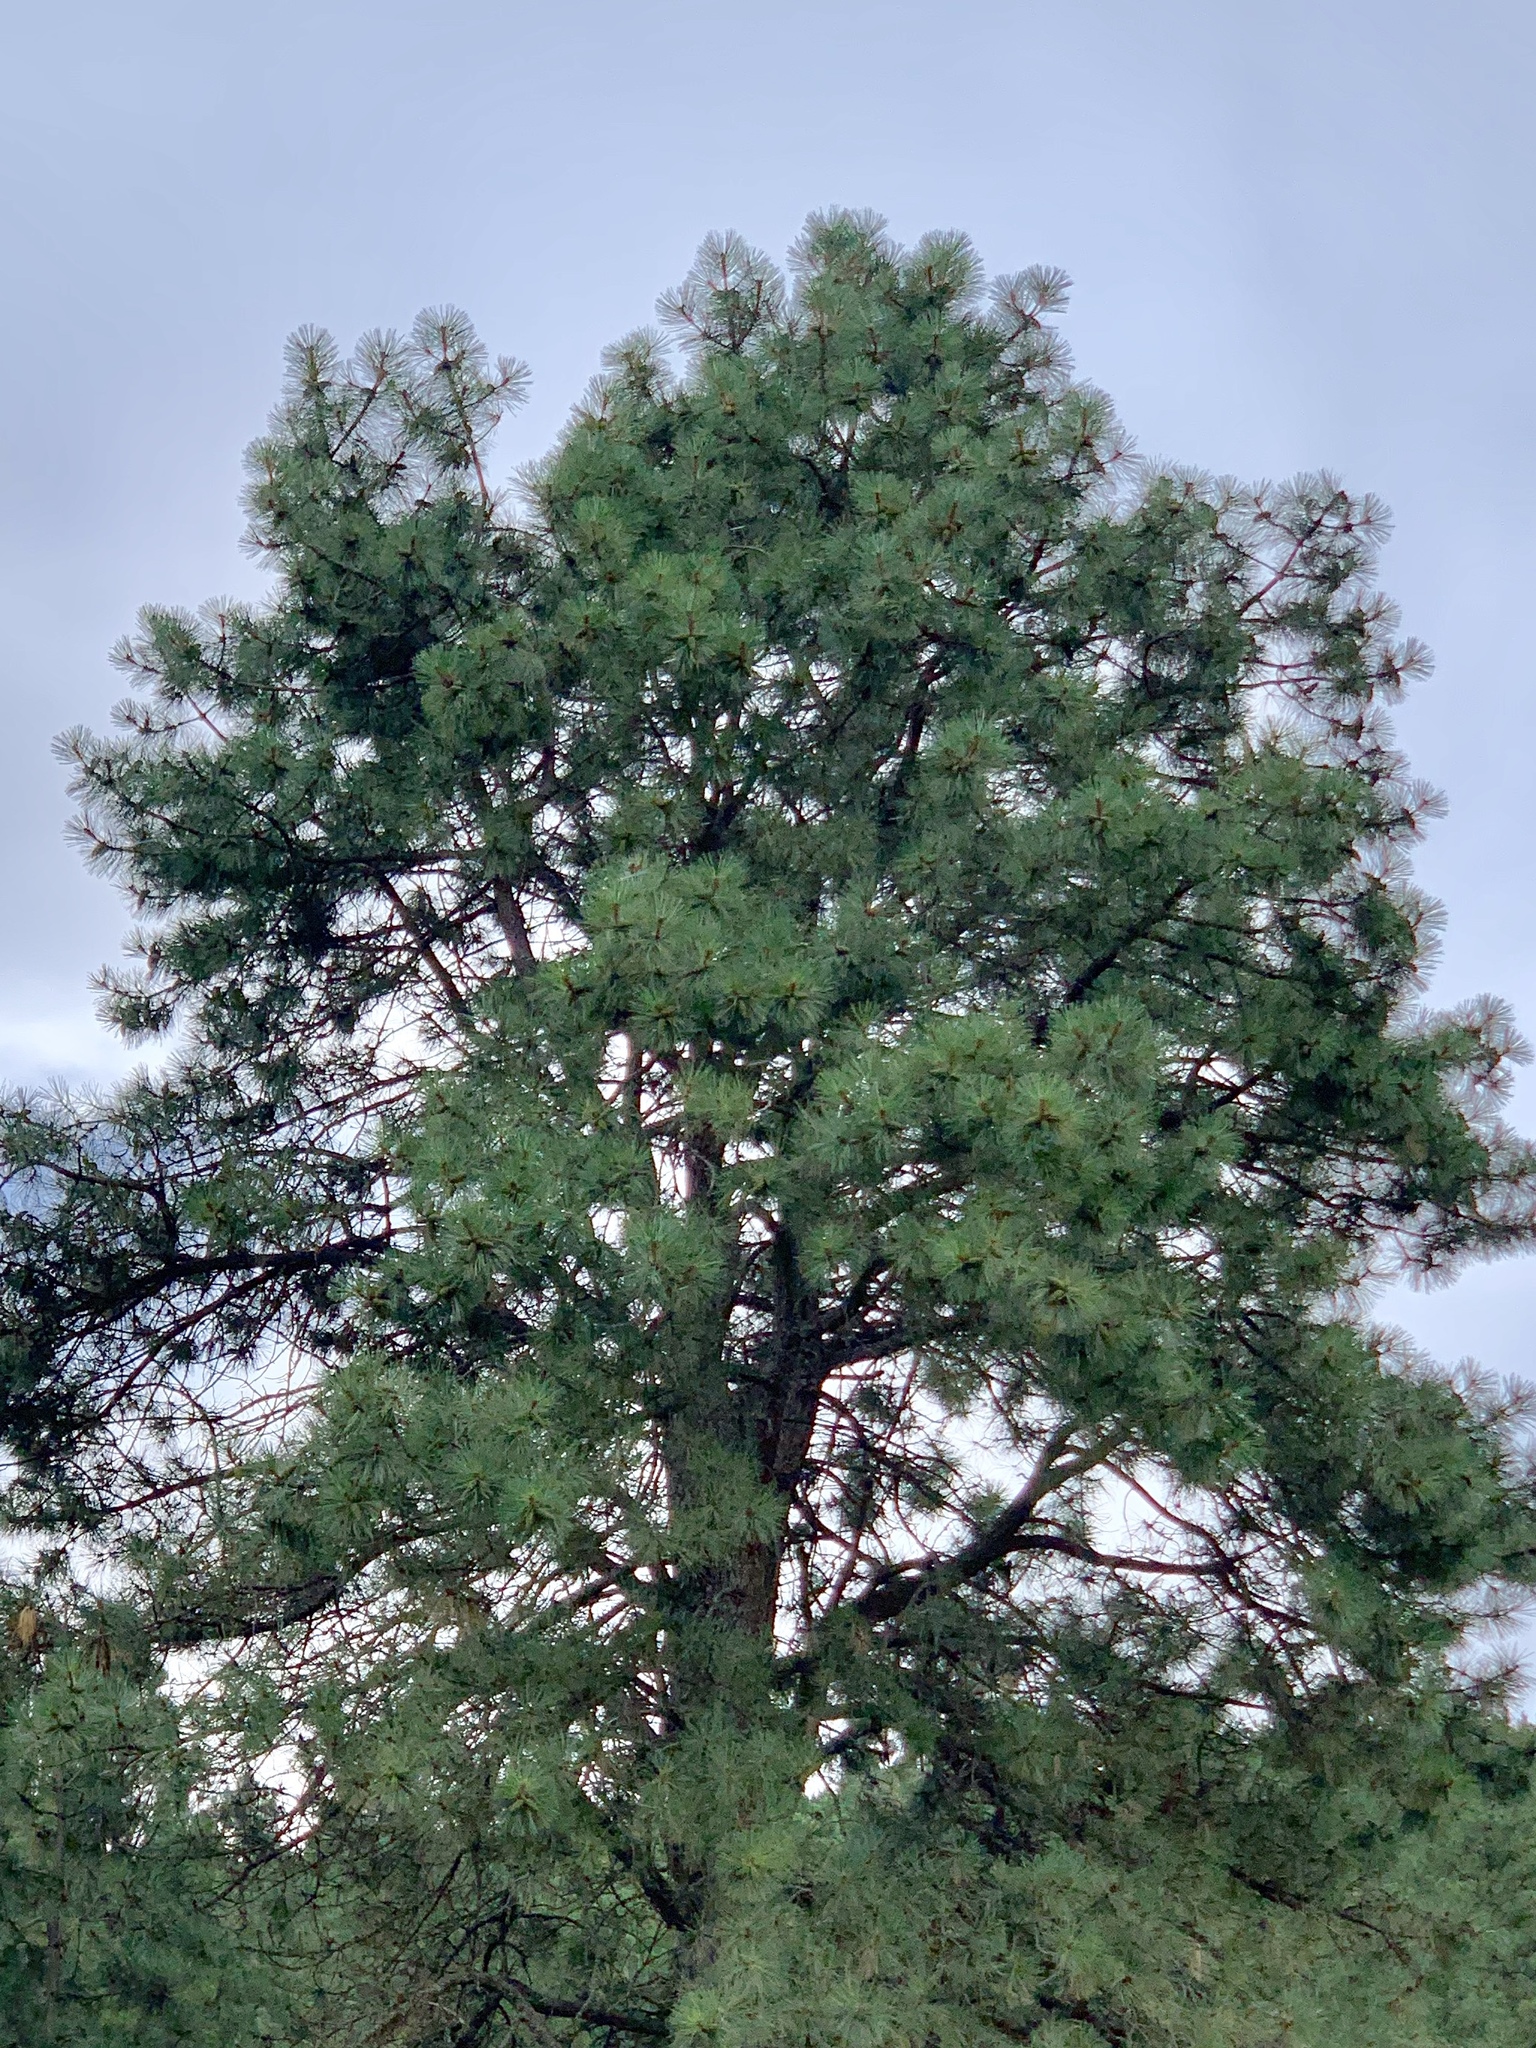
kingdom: Plantae
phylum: Tracheophyta
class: Pinopsida
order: Pinales
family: Pinaceae
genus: Pinus
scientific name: Pinus ponderosa
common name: Western yellow-pine
